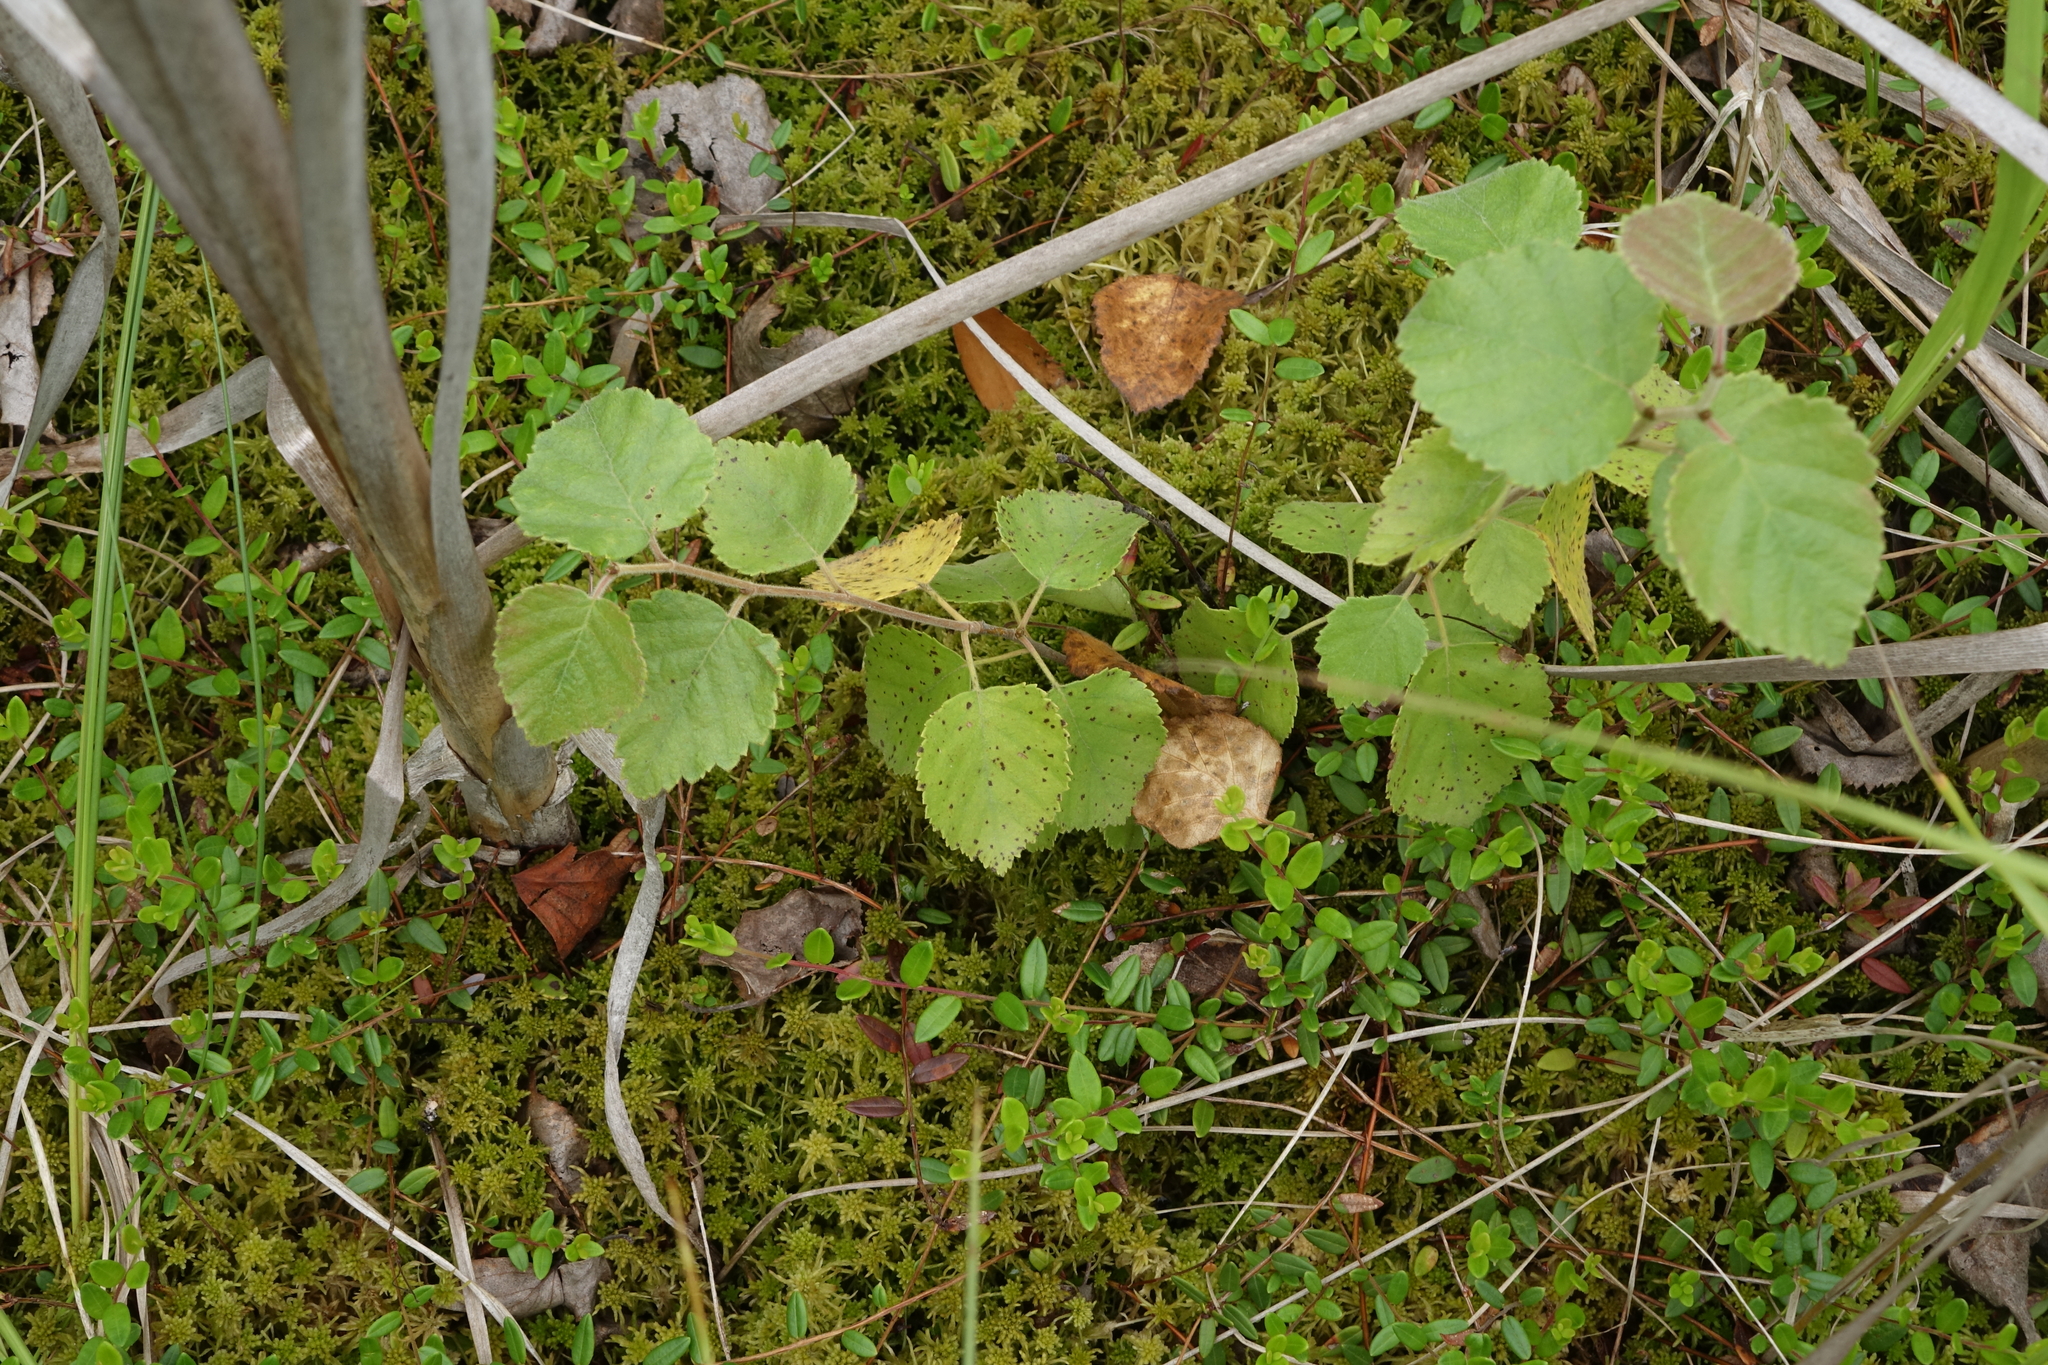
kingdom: Plantae
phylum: Tracheophyta
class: Magnoliopsida
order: Fagales
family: Betulaceae
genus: Betula
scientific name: Betula pubescens
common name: Downy birch
